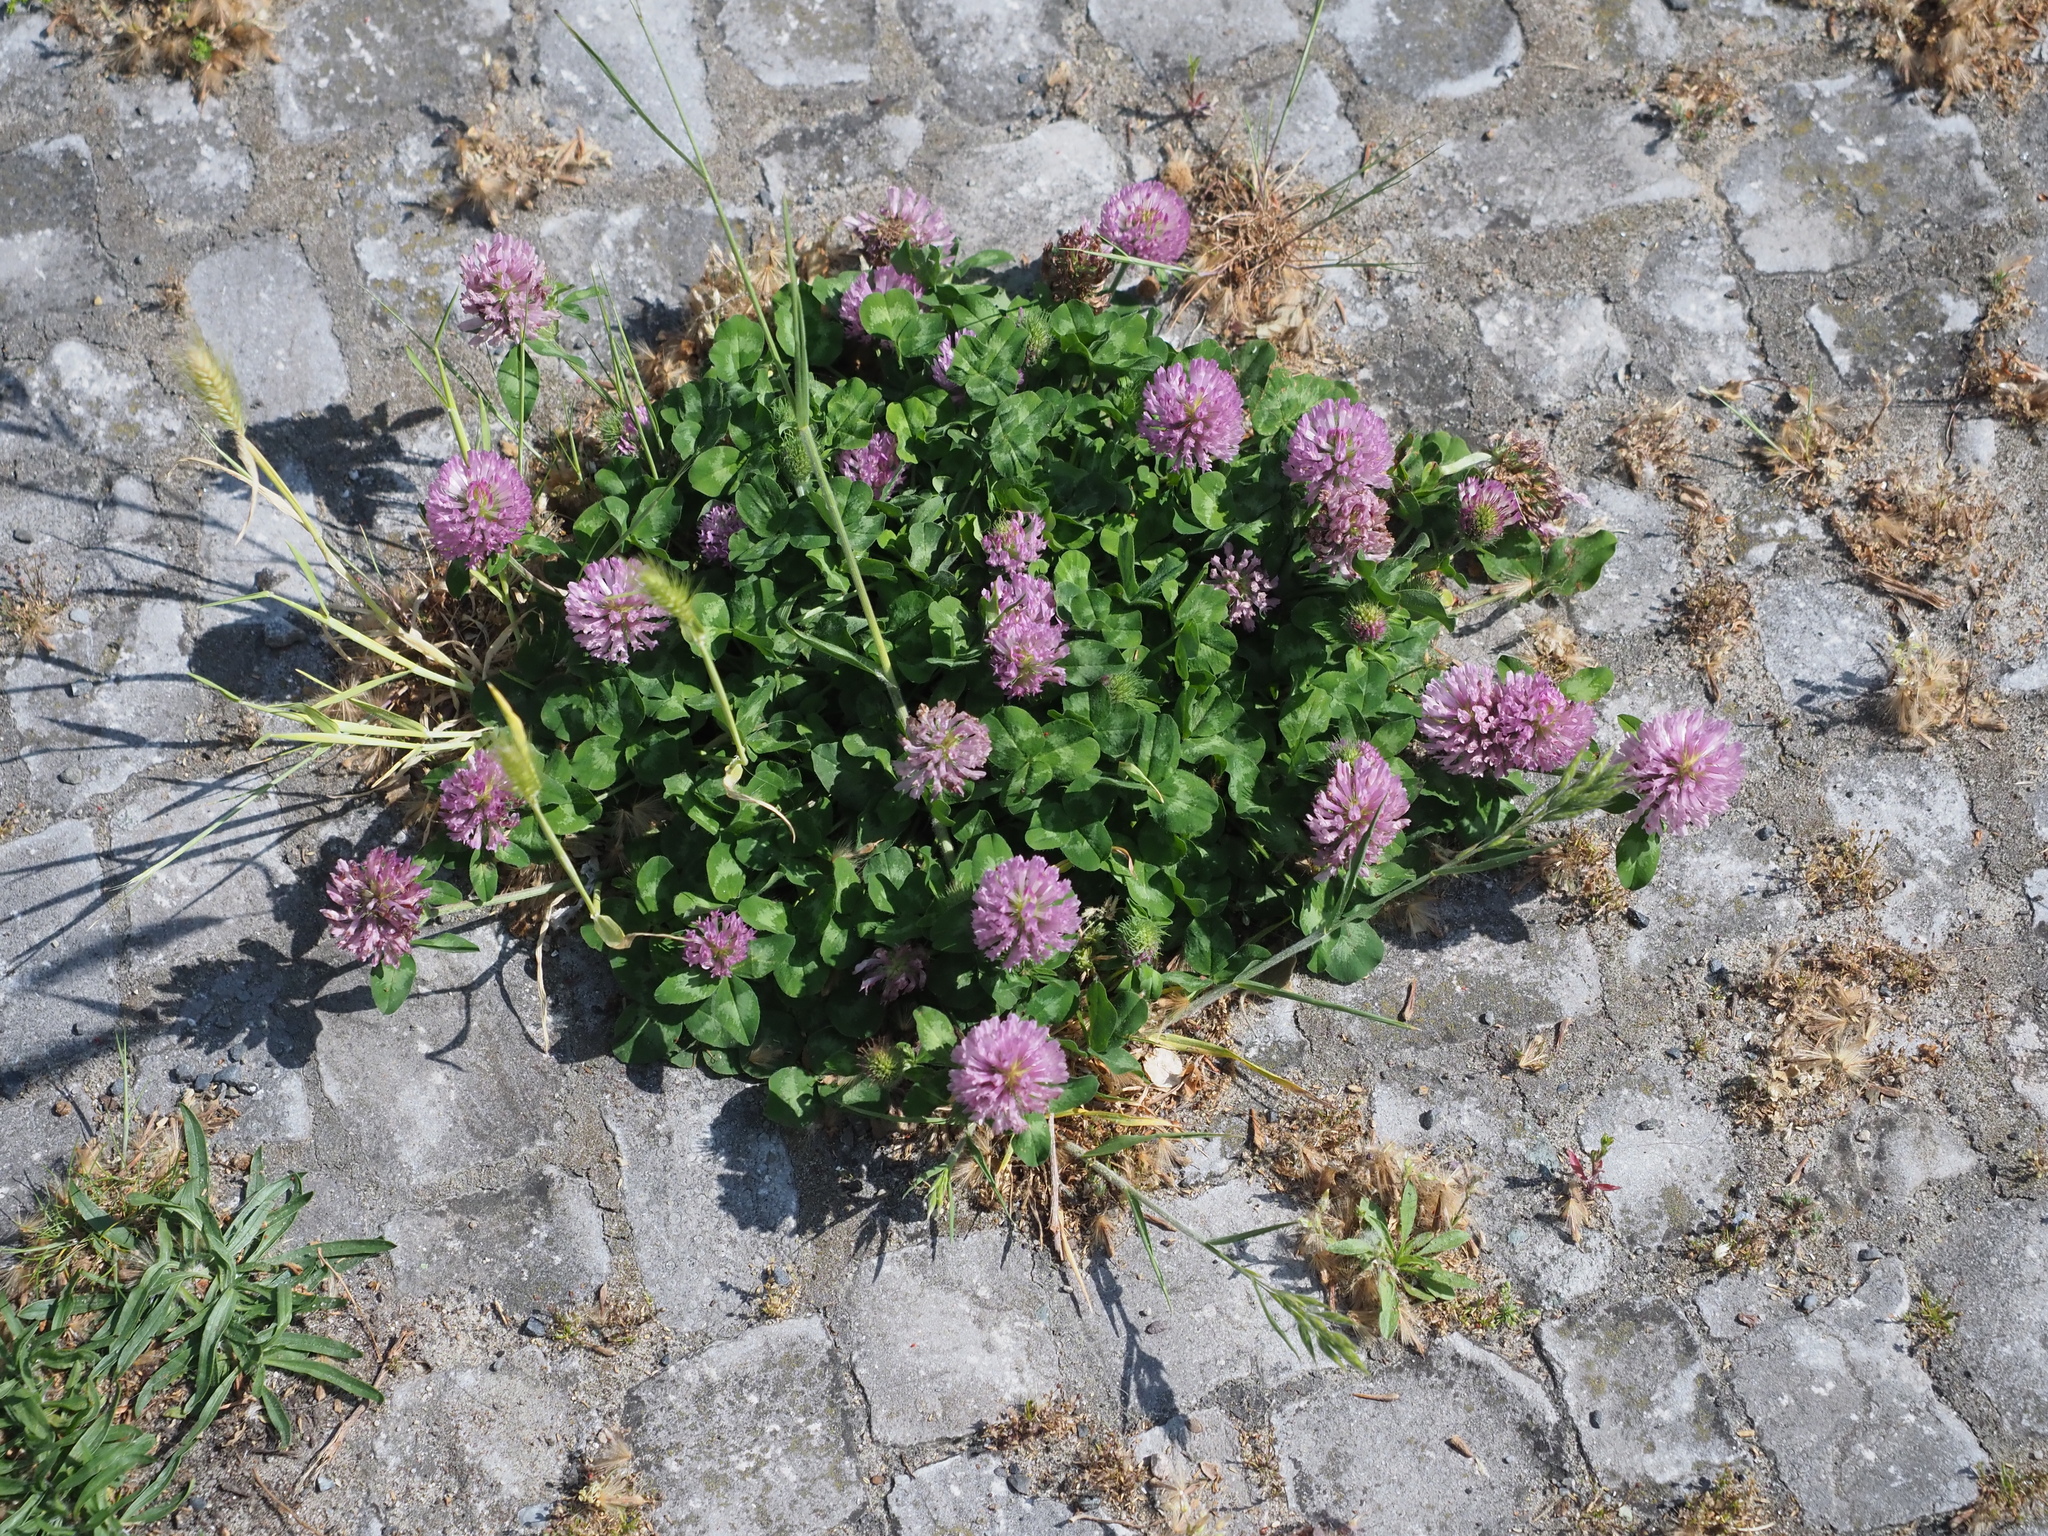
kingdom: Plantae
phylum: Tracheophyta
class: Magnoliopsida
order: Fabales
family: Fabaceae
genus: Trifolium
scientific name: Trifolium pratense
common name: Red clover
